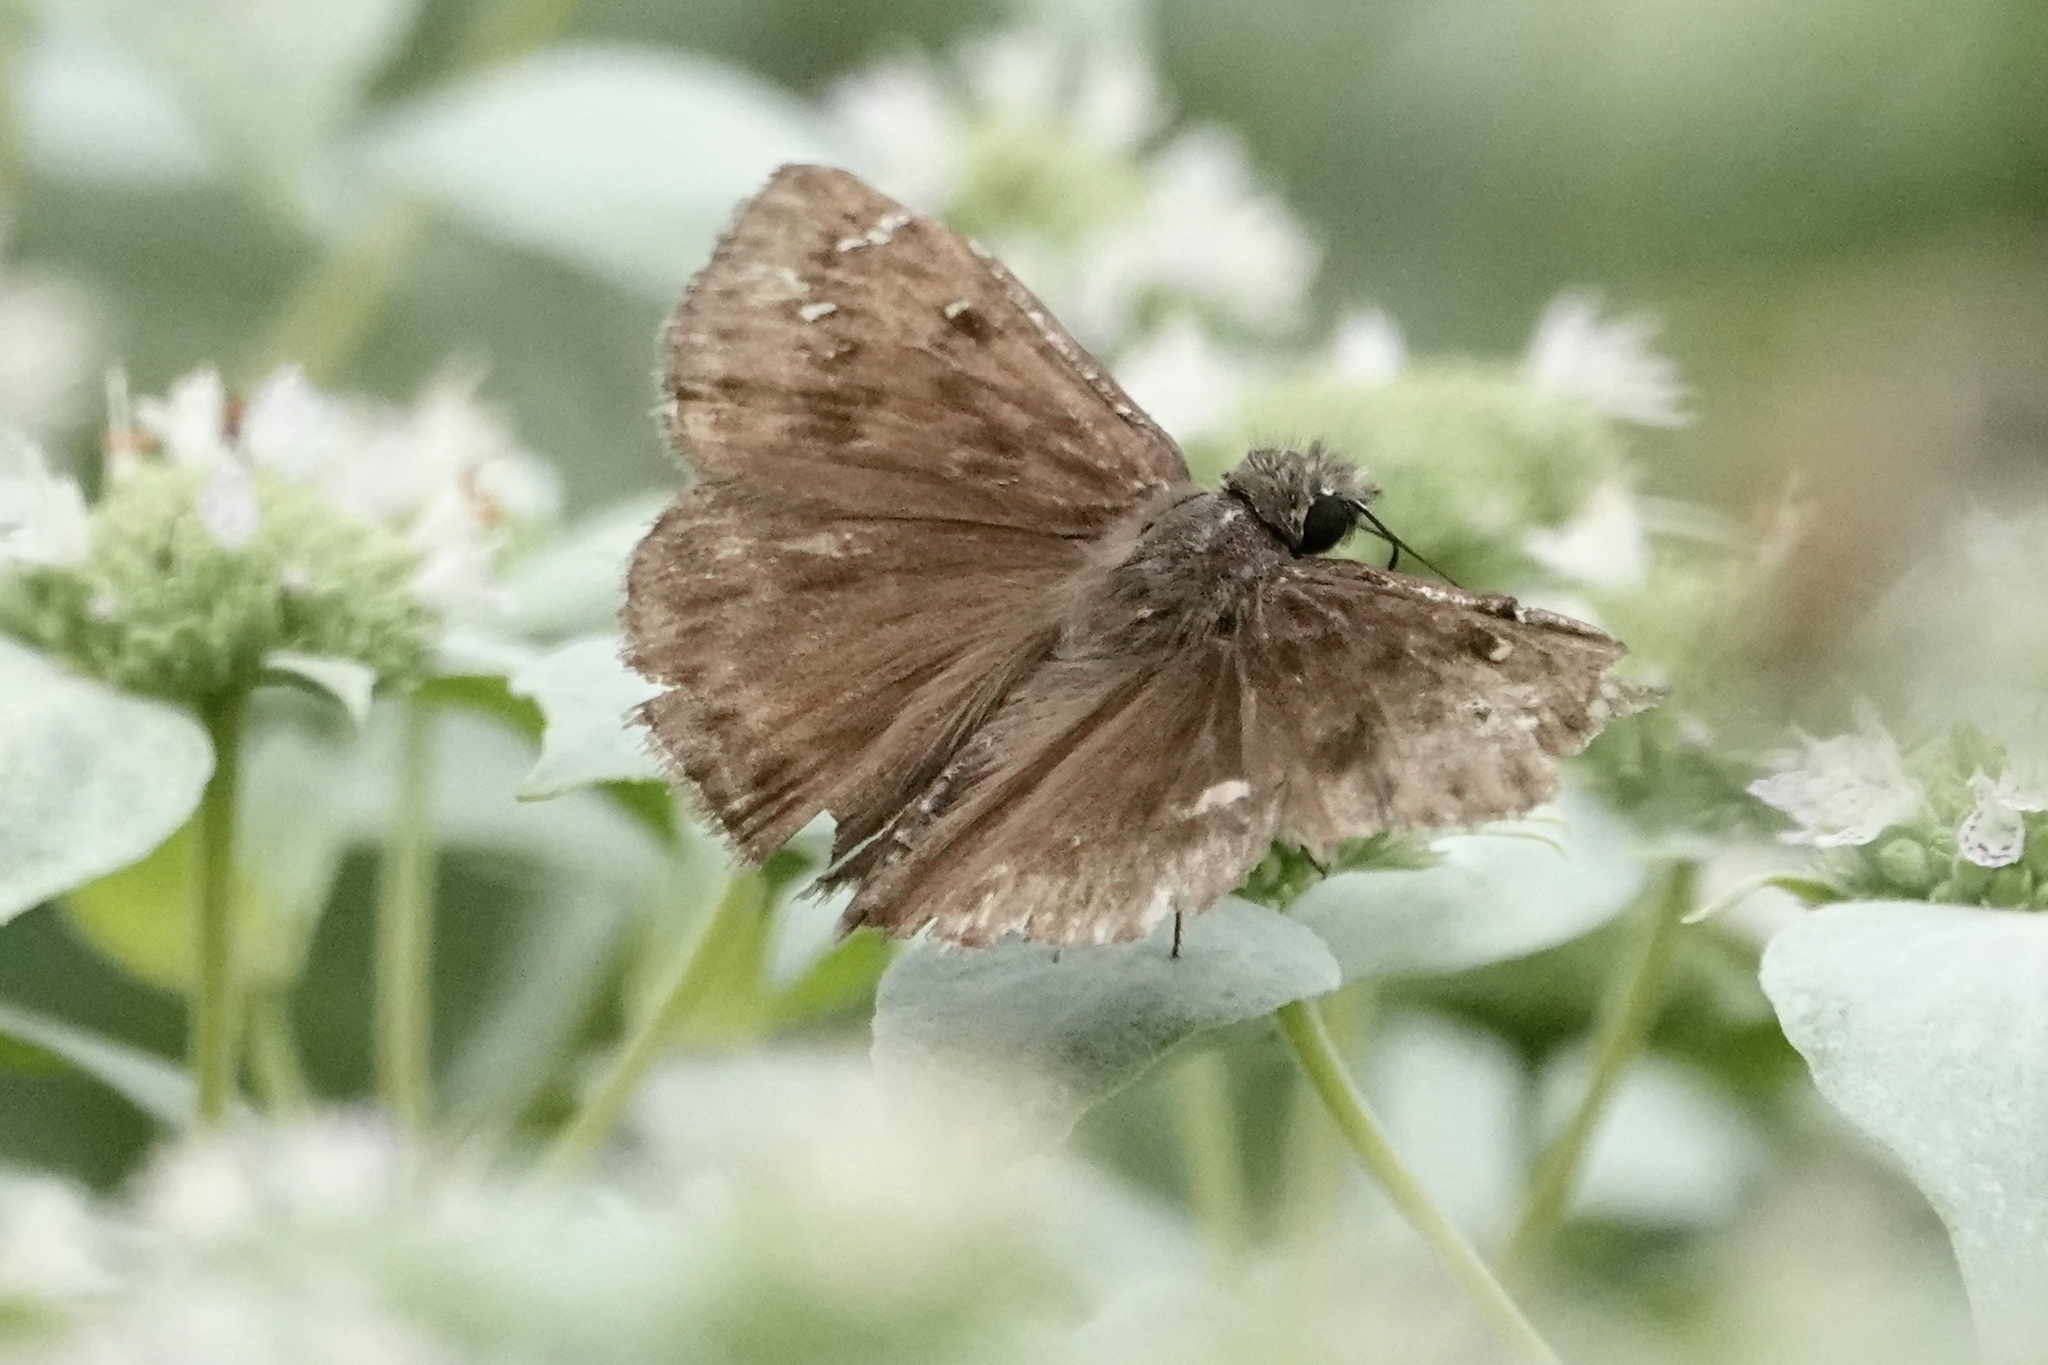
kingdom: Animalia
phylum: Arthropoda
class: Insecta
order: Lepidoptera
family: Hesperiidae
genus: Erynnis
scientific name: Erynnis horatius
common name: Horace's duskywing
